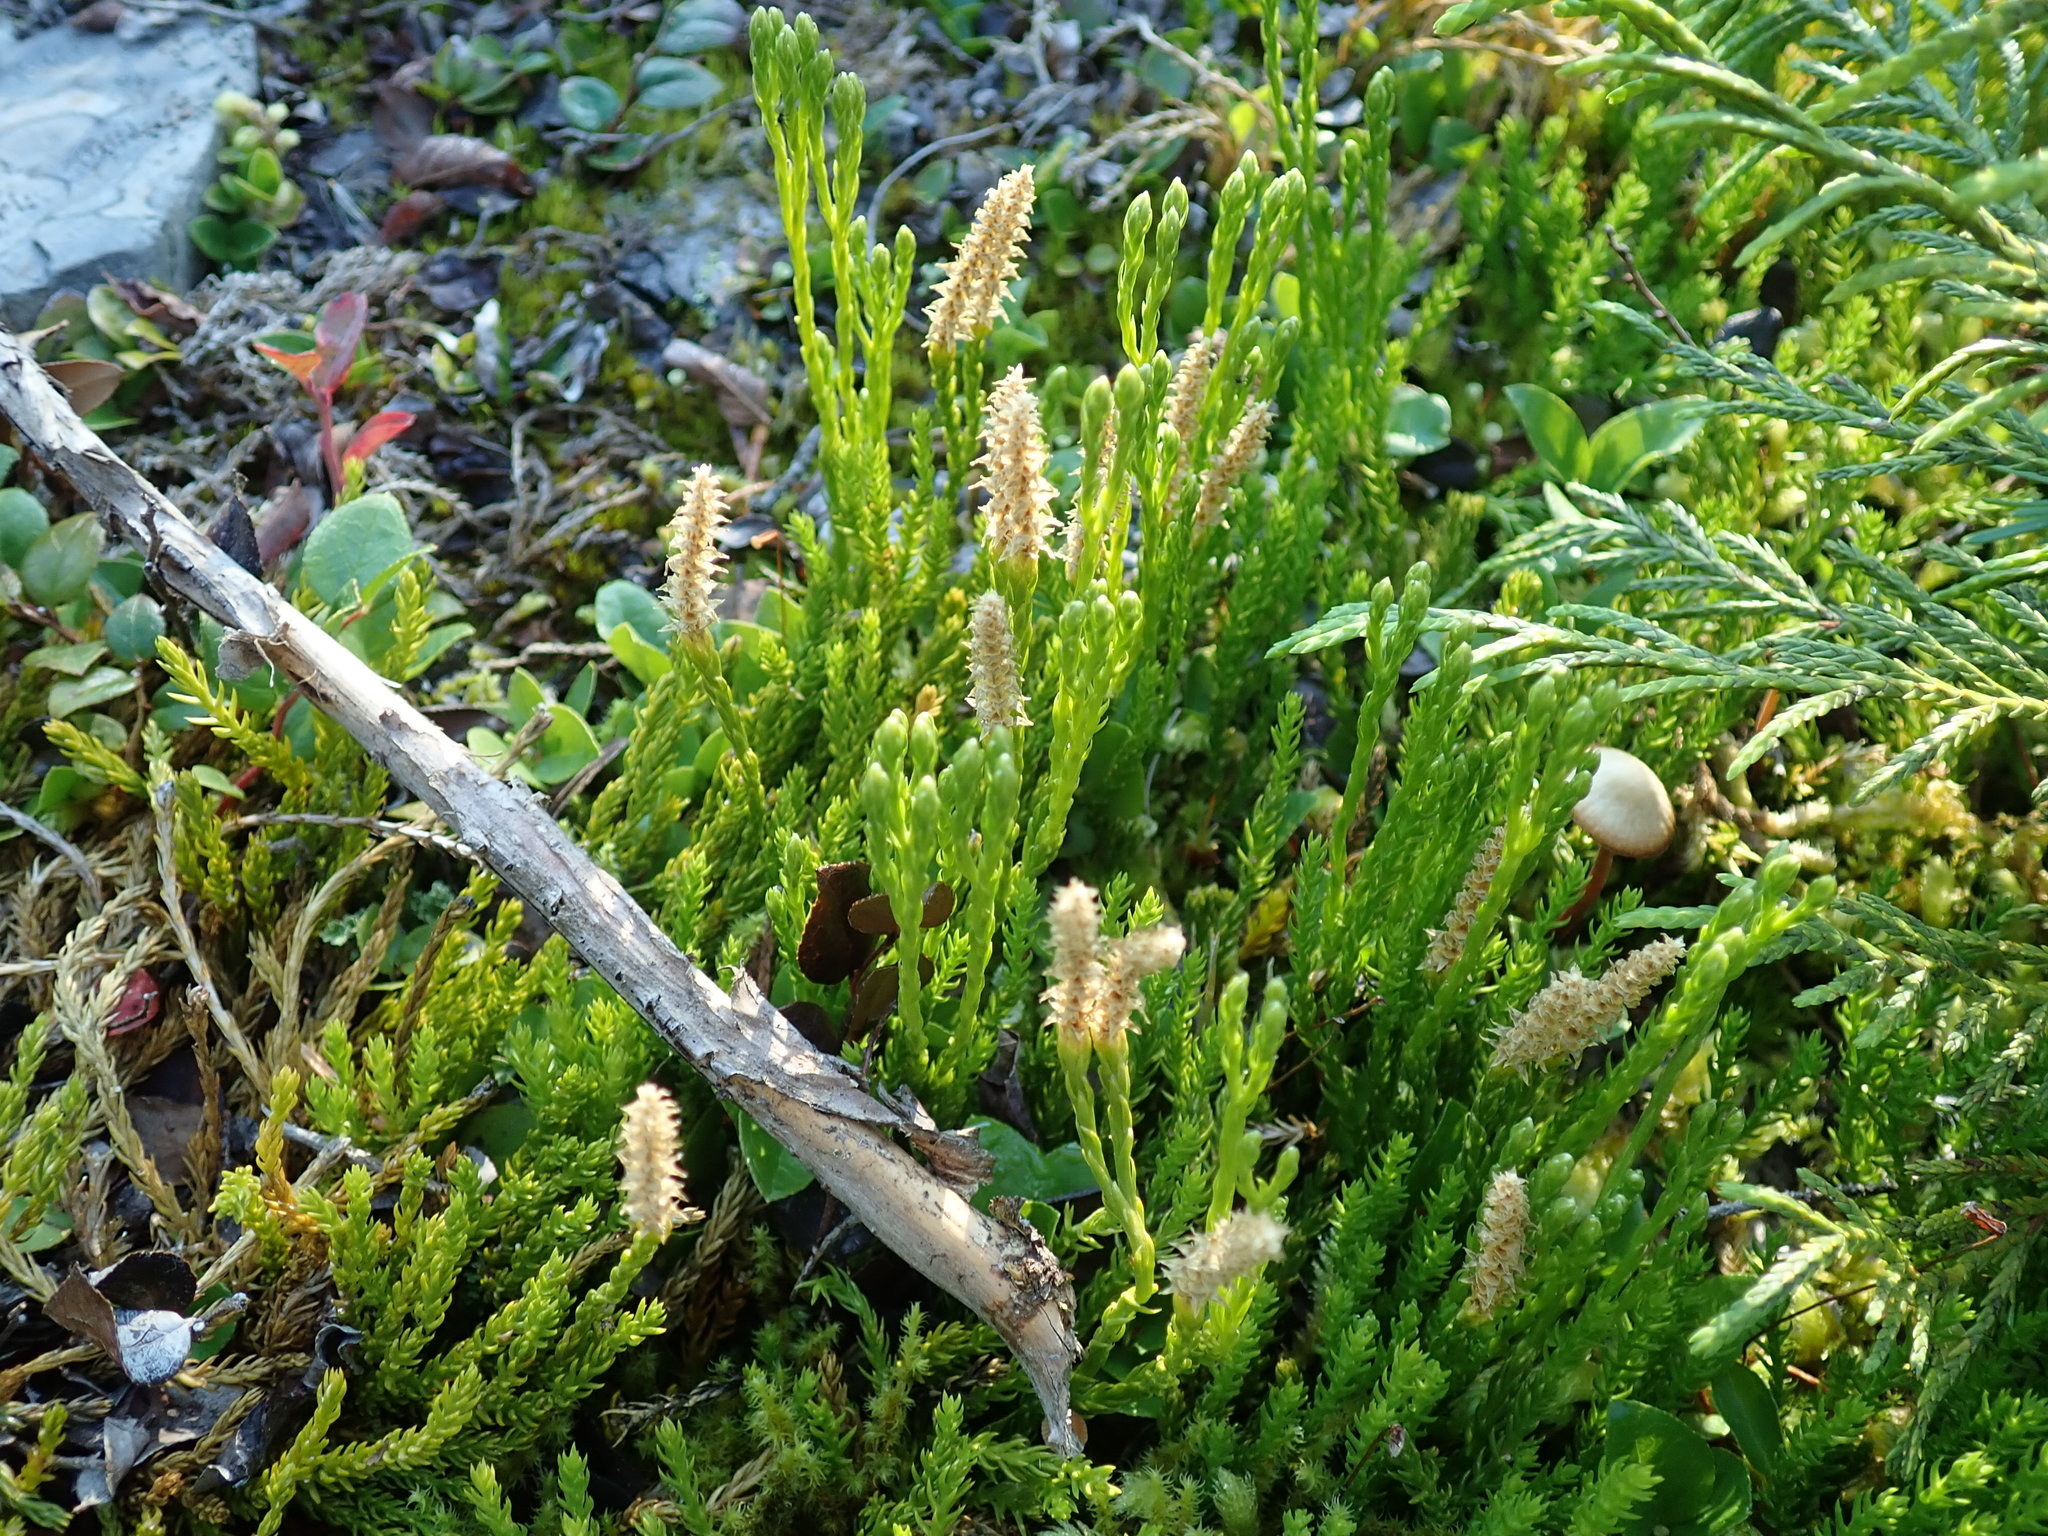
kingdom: Plantae
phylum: Tracheophyta
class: Lycopodiopsida
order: Lycopodiales
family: Lycopodiaceae
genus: Diphasiastrum
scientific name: Diphasiastrum sitchense
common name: Alaska clubmoss
